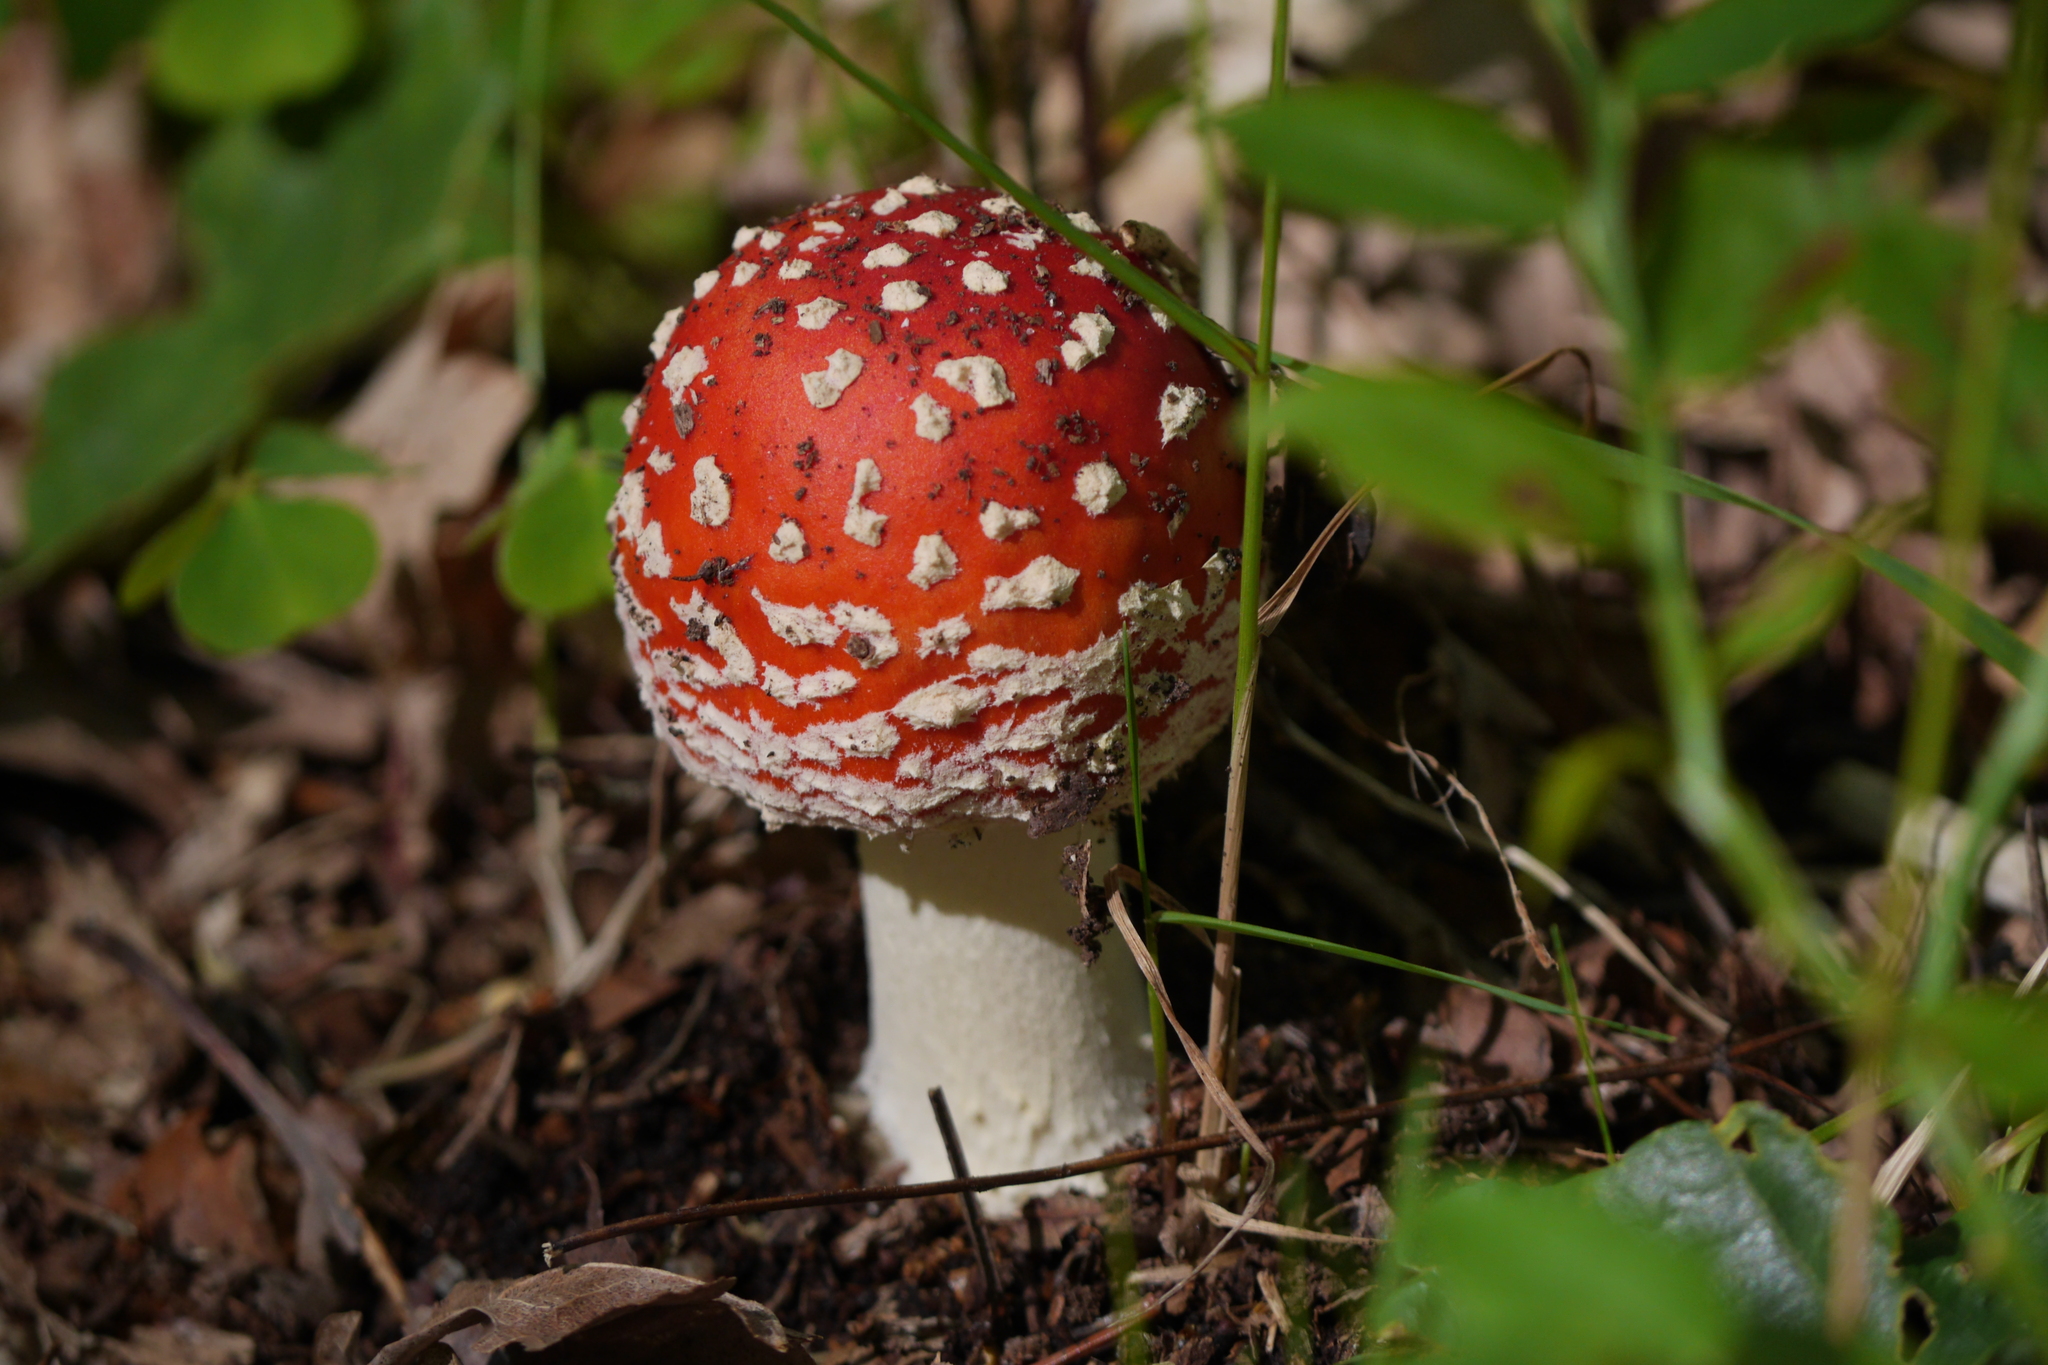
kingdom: Fungi
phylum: Basidiomycota
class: Agaricomycetes
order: Agaricales
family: Amanitaceae
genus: Amanita
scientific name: Amanita muscaria
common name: Fly agaric
